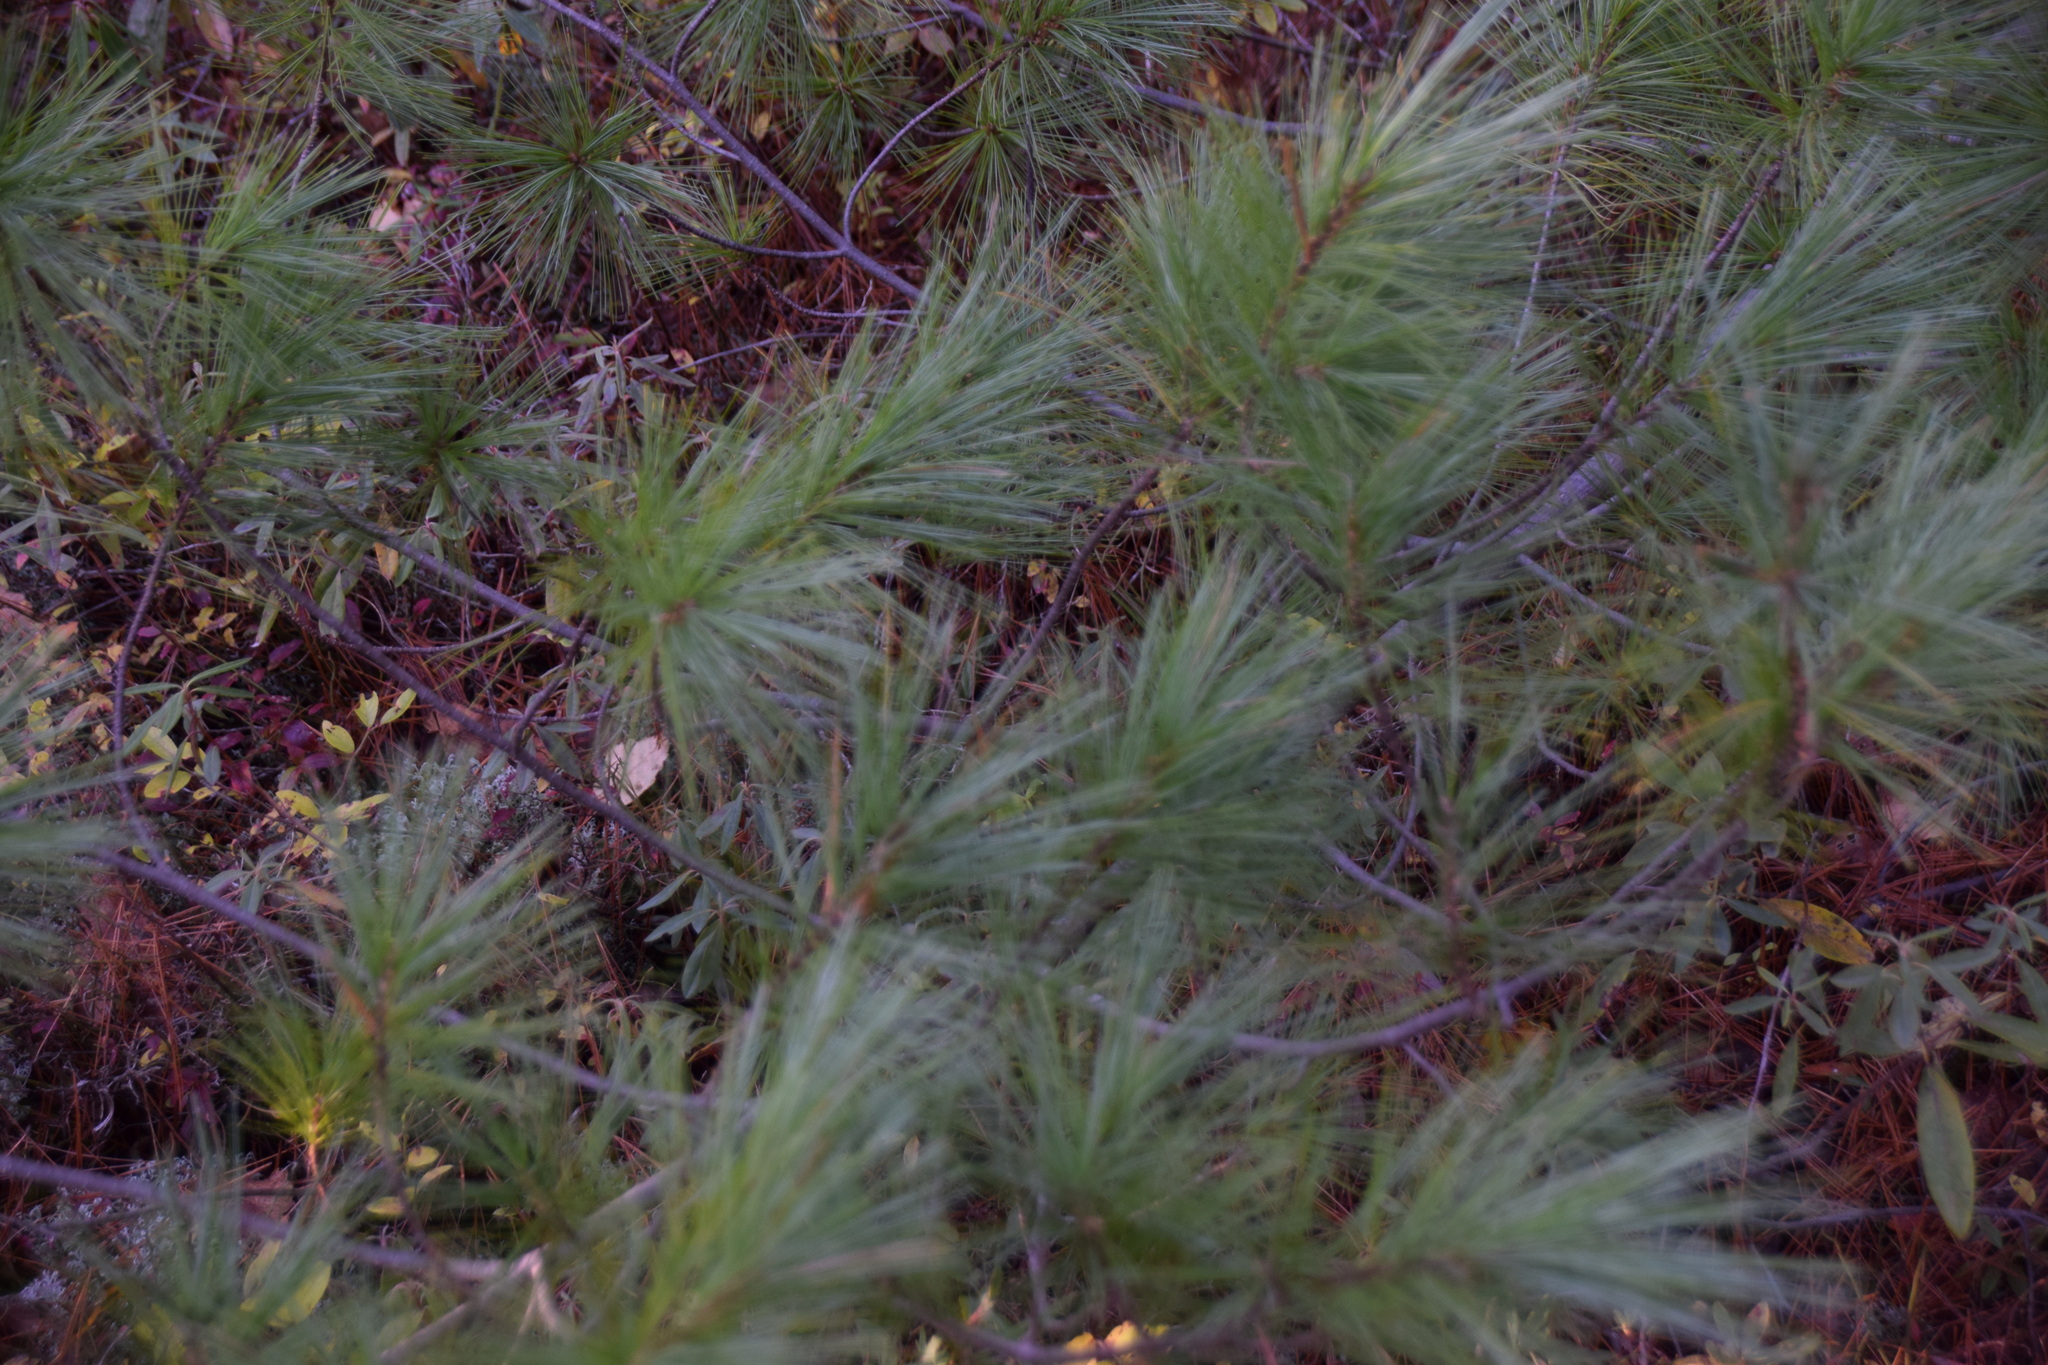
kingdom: Plantae
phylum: Tracheophyta
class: Pinopsida
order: Pinales
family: Pinaceae
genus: Pinus
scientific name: Pinus strobus
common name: Weymouth pine
